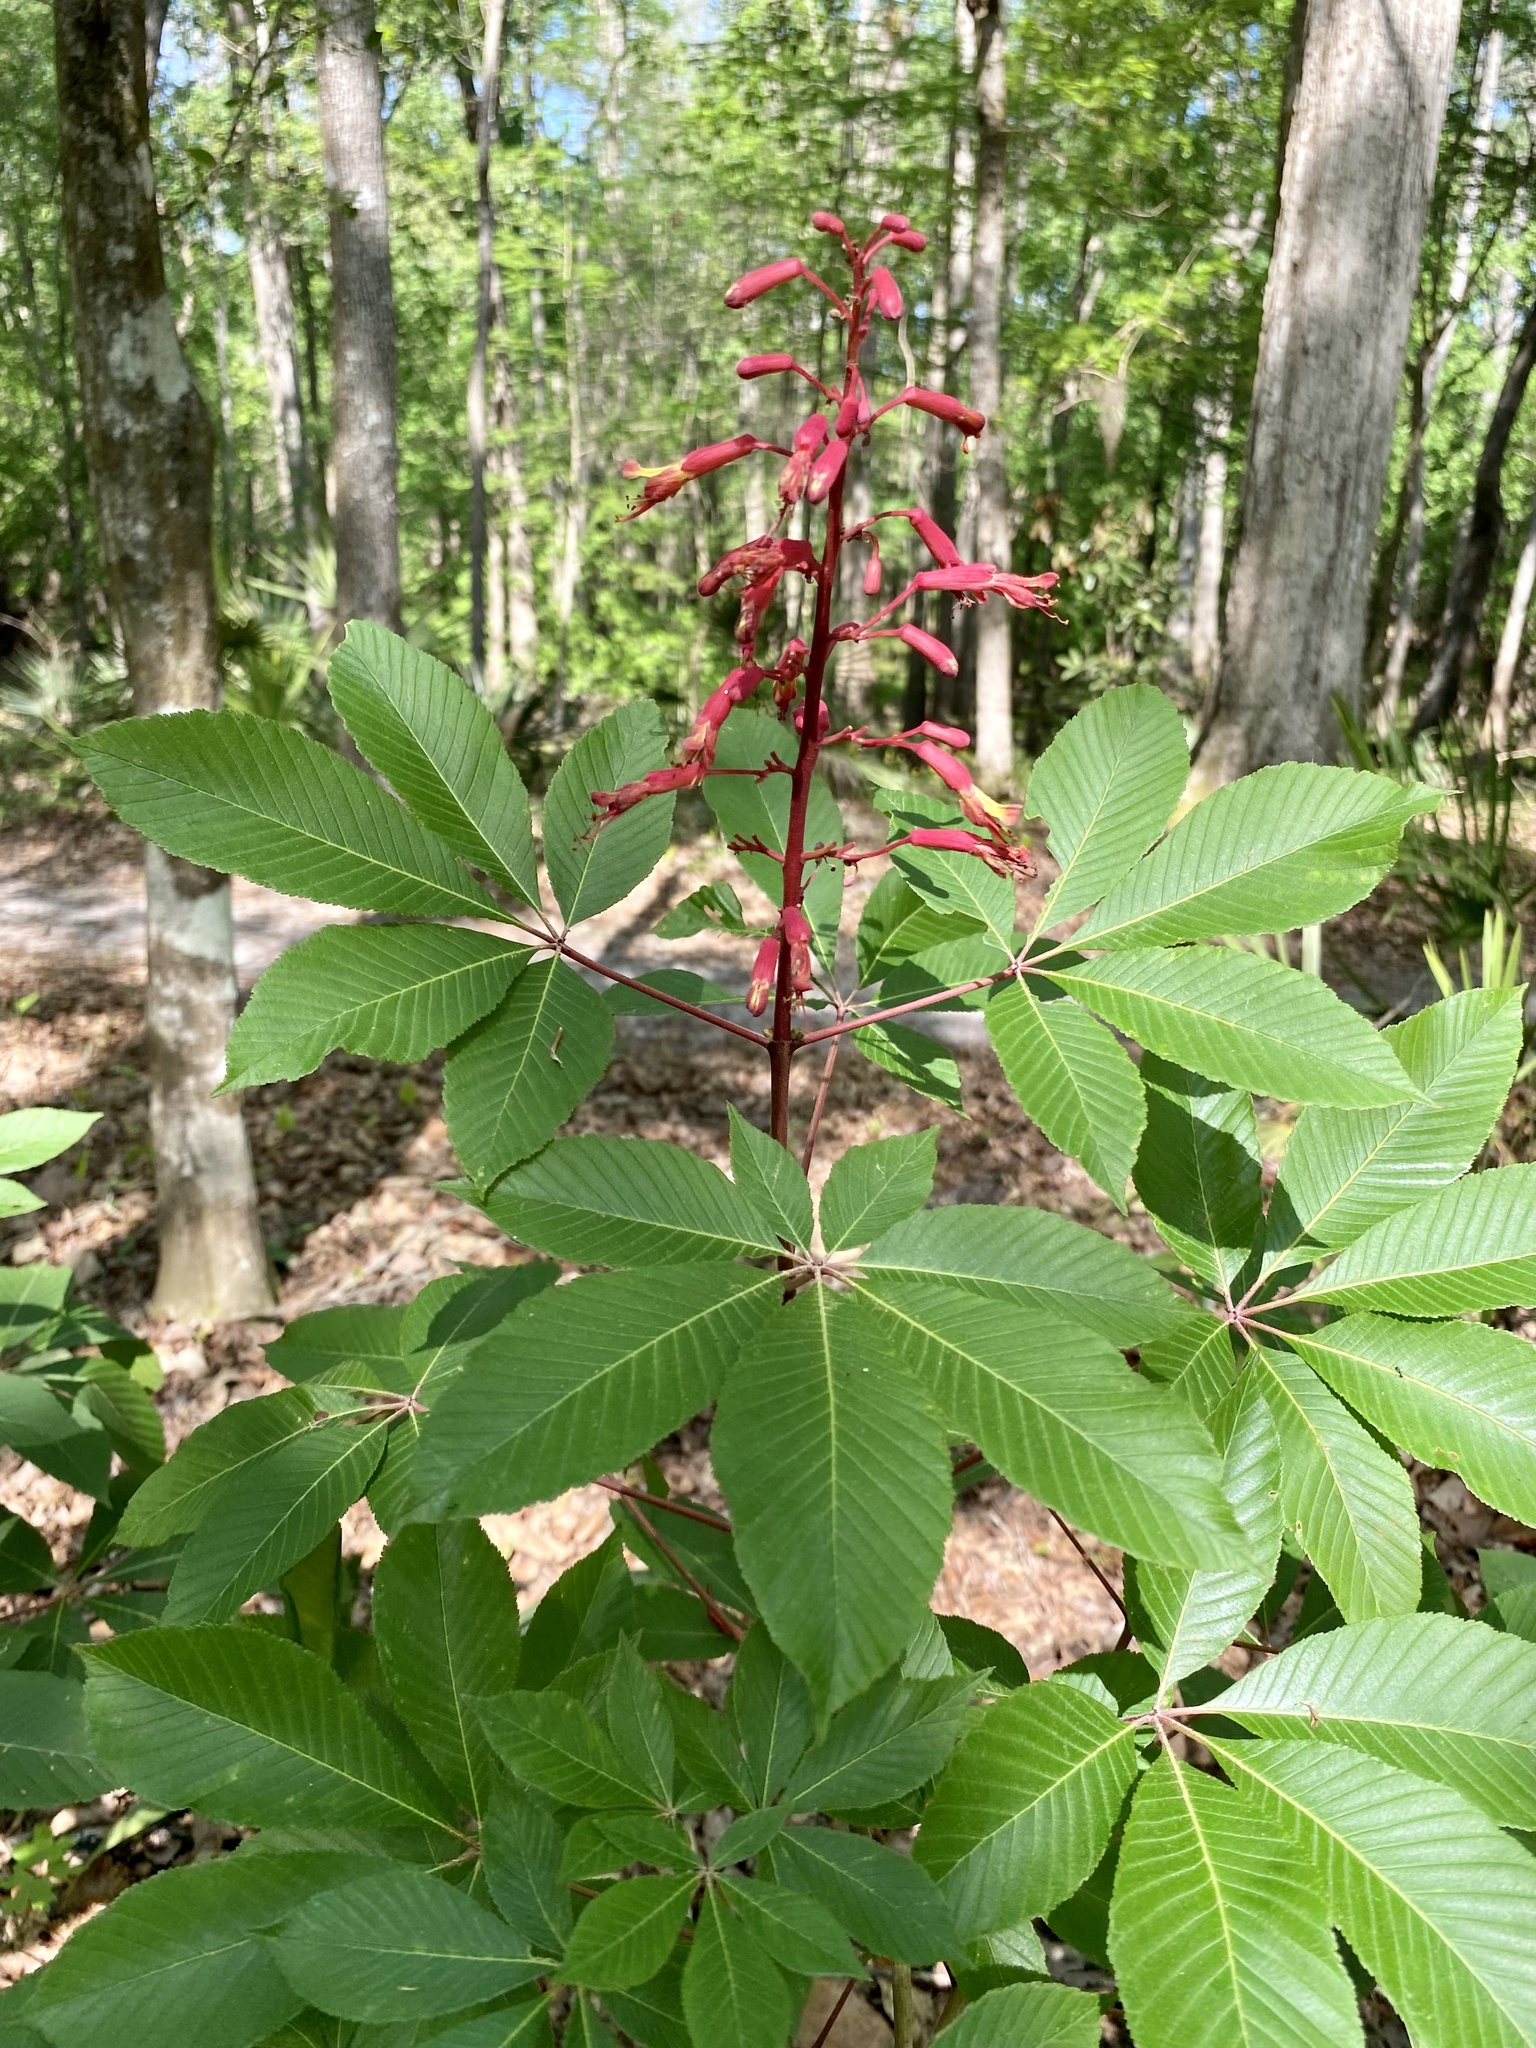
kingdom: Plantae
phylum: Tracheophyta
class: Magnoliopsida
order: Sapindales
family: Sapindaceae
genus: Aesculus
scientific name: Aesculus pavia
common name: Red buckeye
